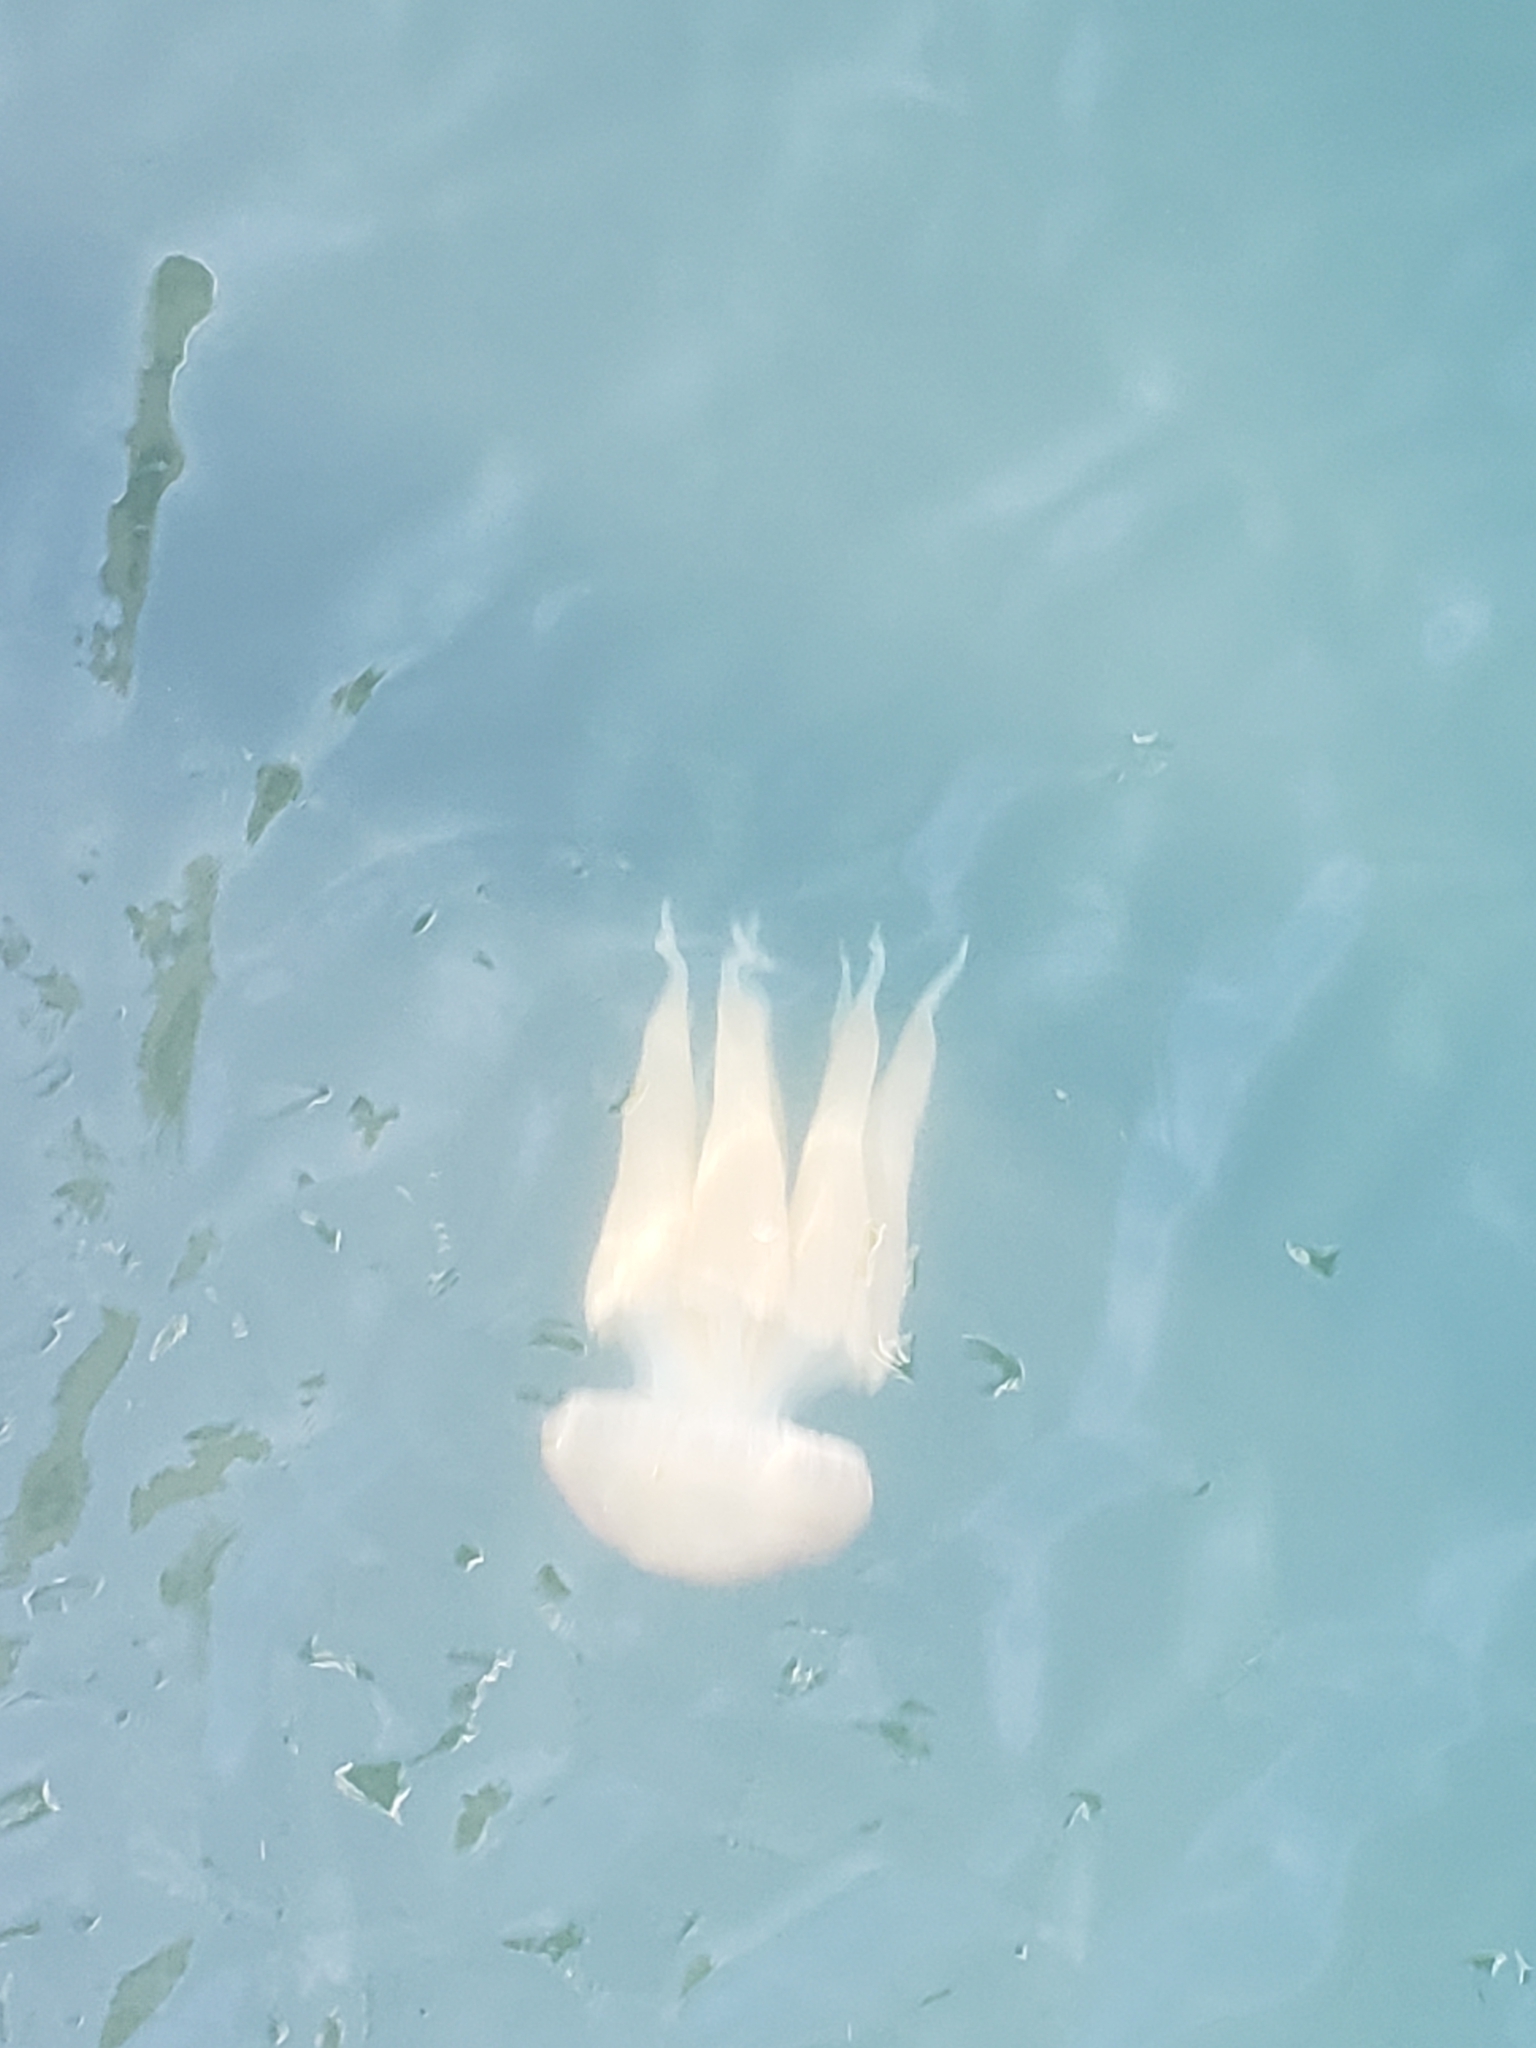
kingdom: Animalia
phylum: Cnidaria
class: Scyphozoa
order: Rhizostomeae
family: Catostylidae
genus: Catostylus
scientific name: Catostylus tagi
